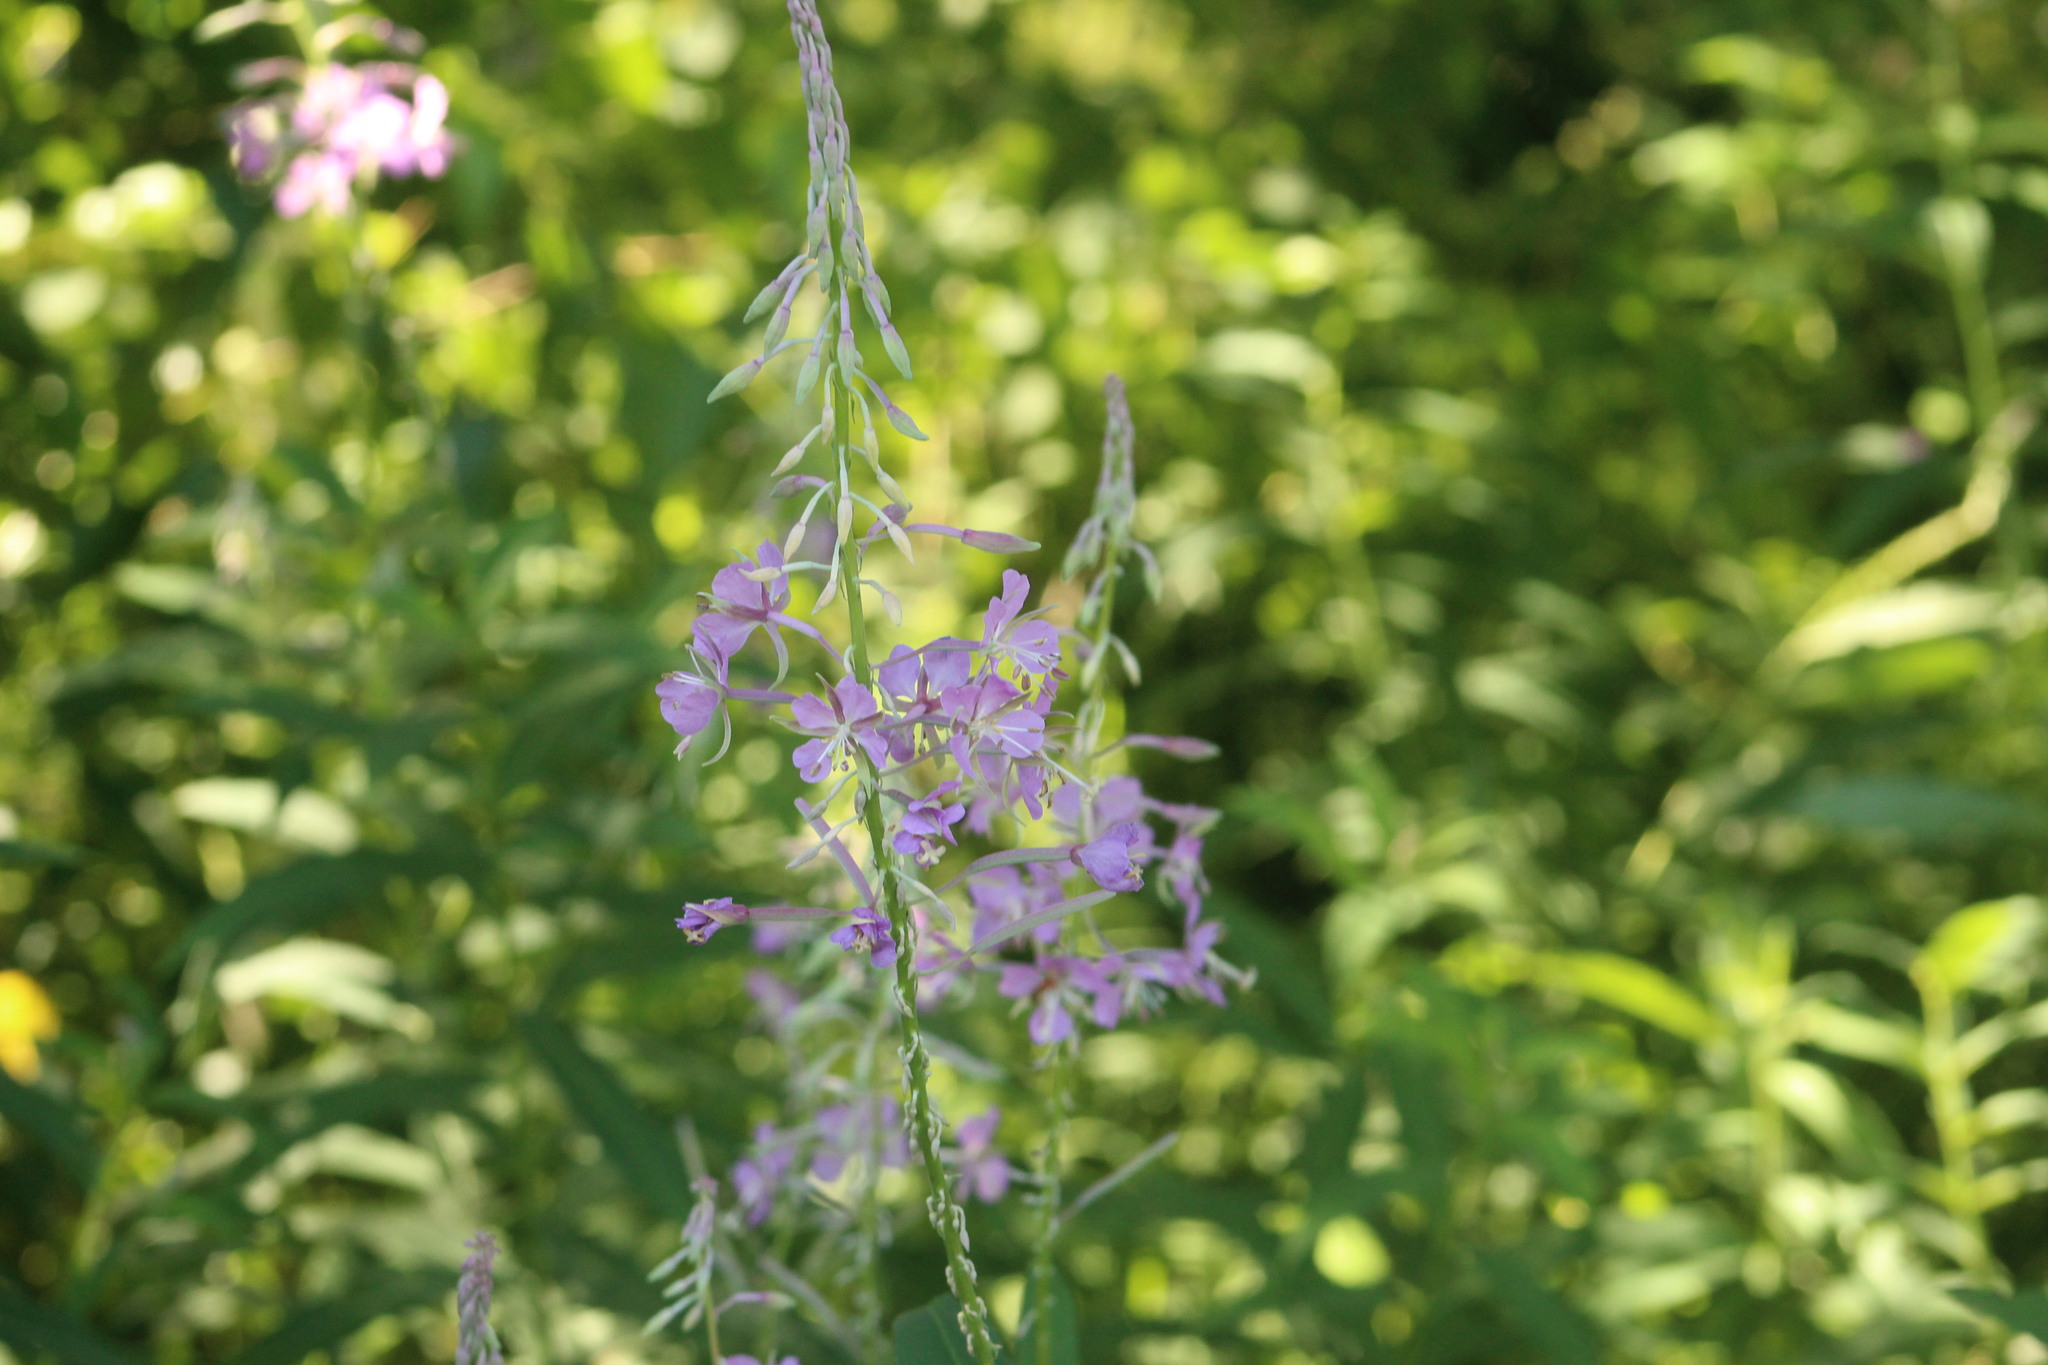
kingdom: Plantae
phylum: Tracheophyta
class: Magnoliopsida
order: Myrtales
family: Onagraceae
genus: Chamaenerion
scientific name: Chamaenerion angustifolium
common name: Fireweed
